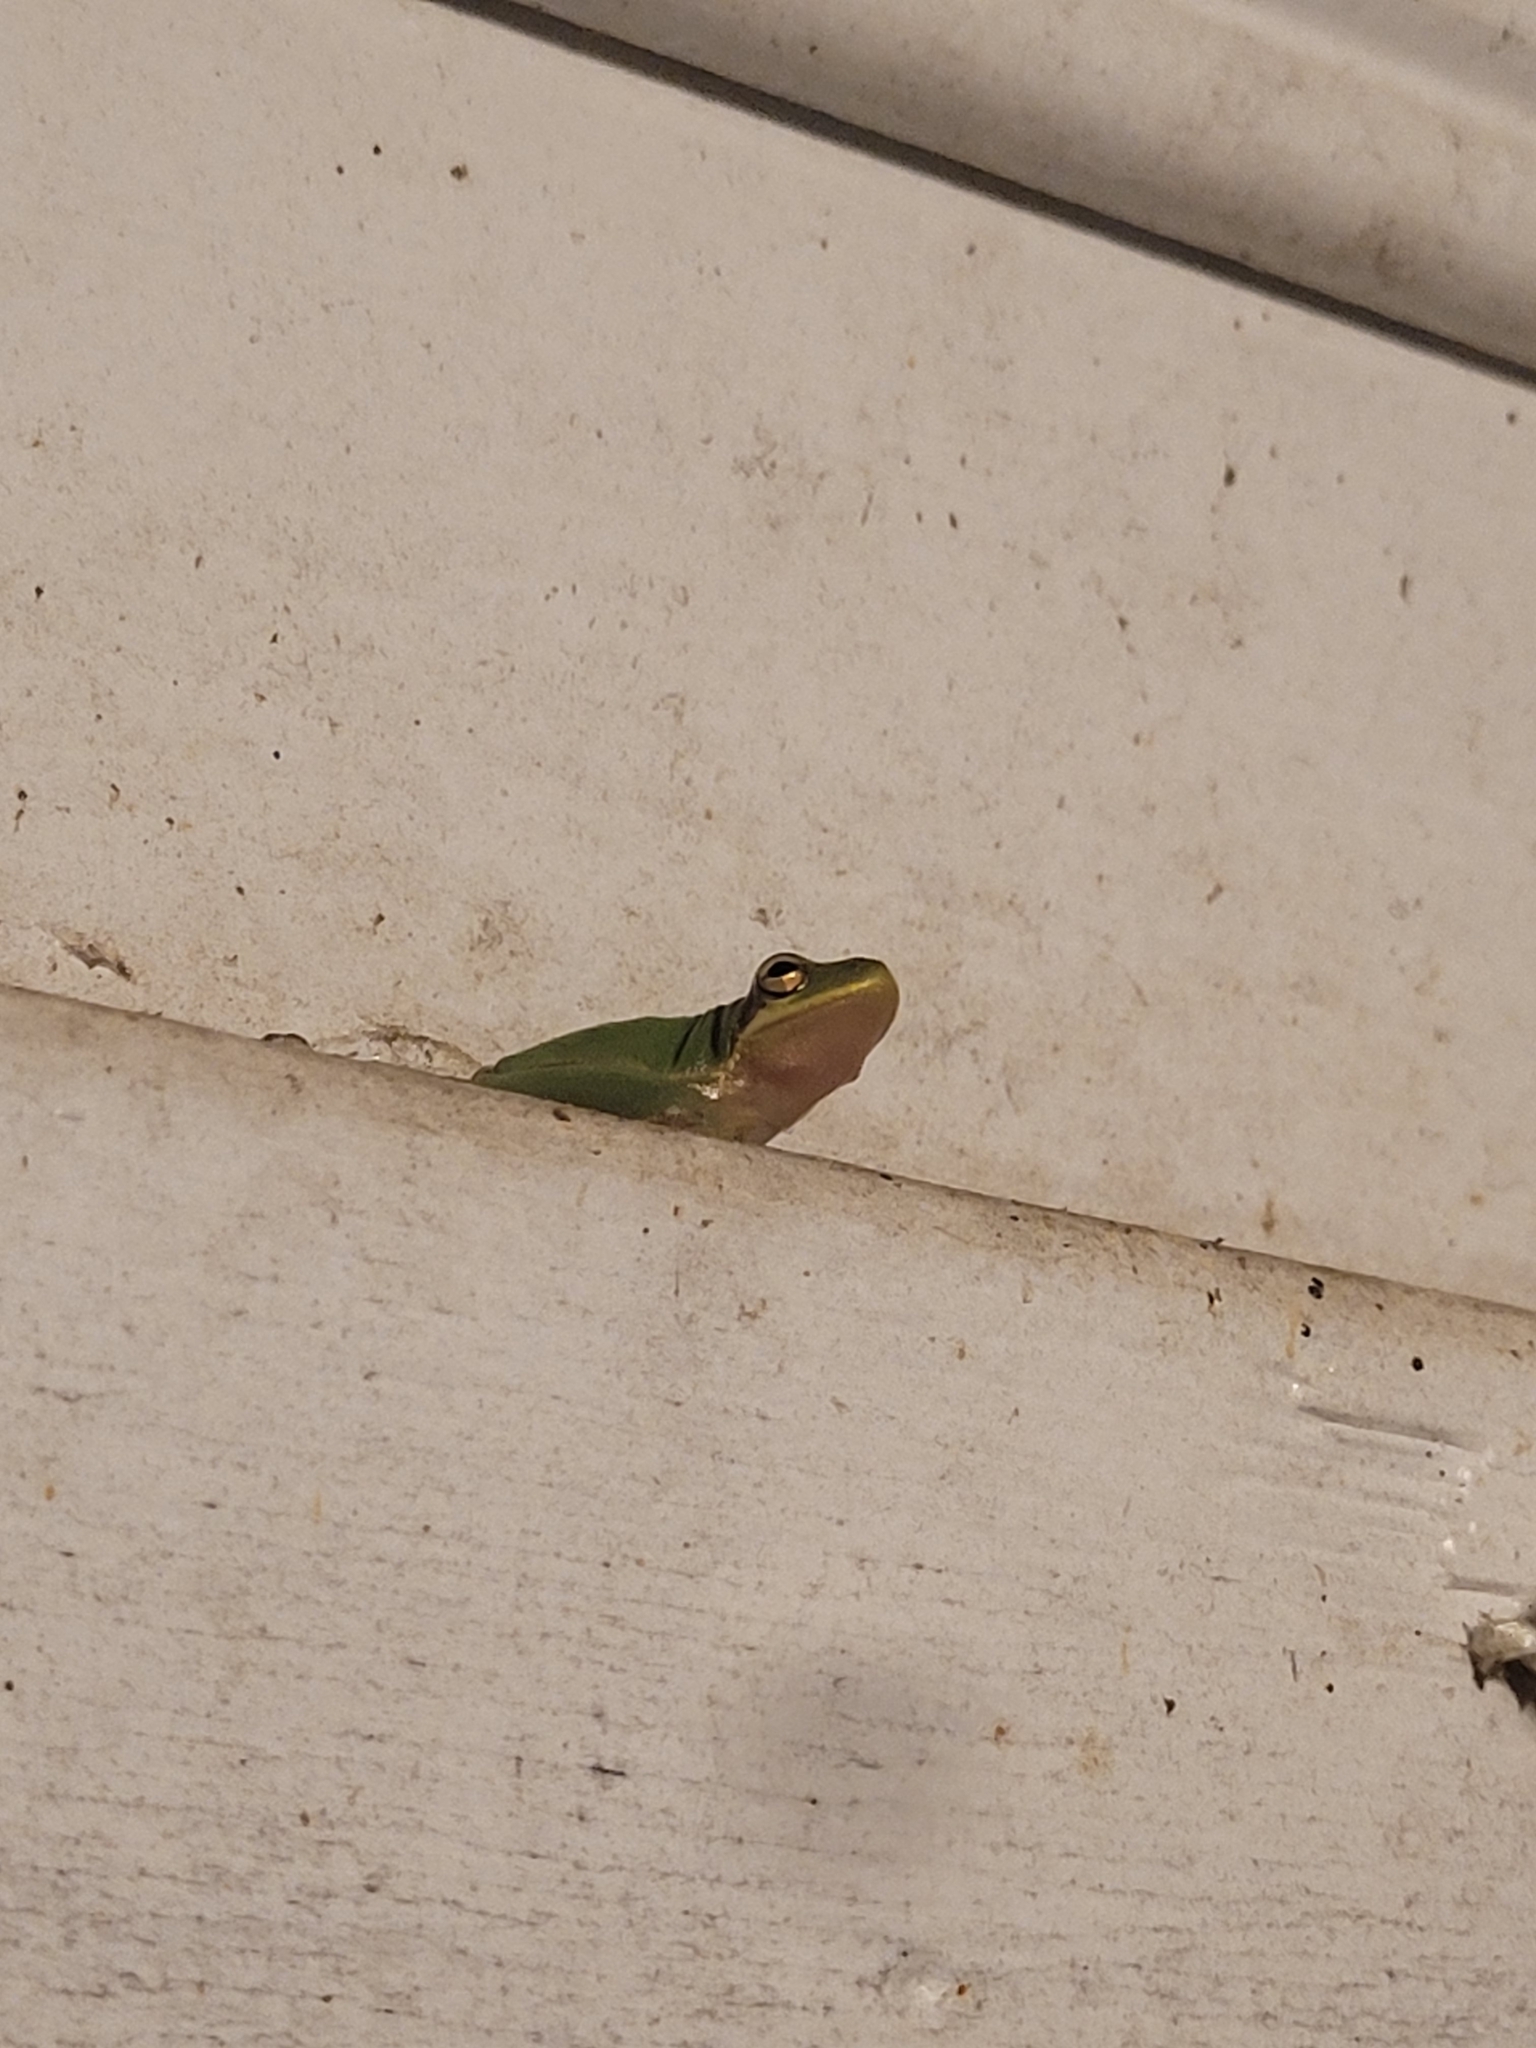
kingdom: Animalia
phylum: Chordata
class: Amphibia
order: Anura
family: Hylidae
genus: Dryophytes
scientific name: Dryophytes squirellus
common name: Squirrel treefrog
